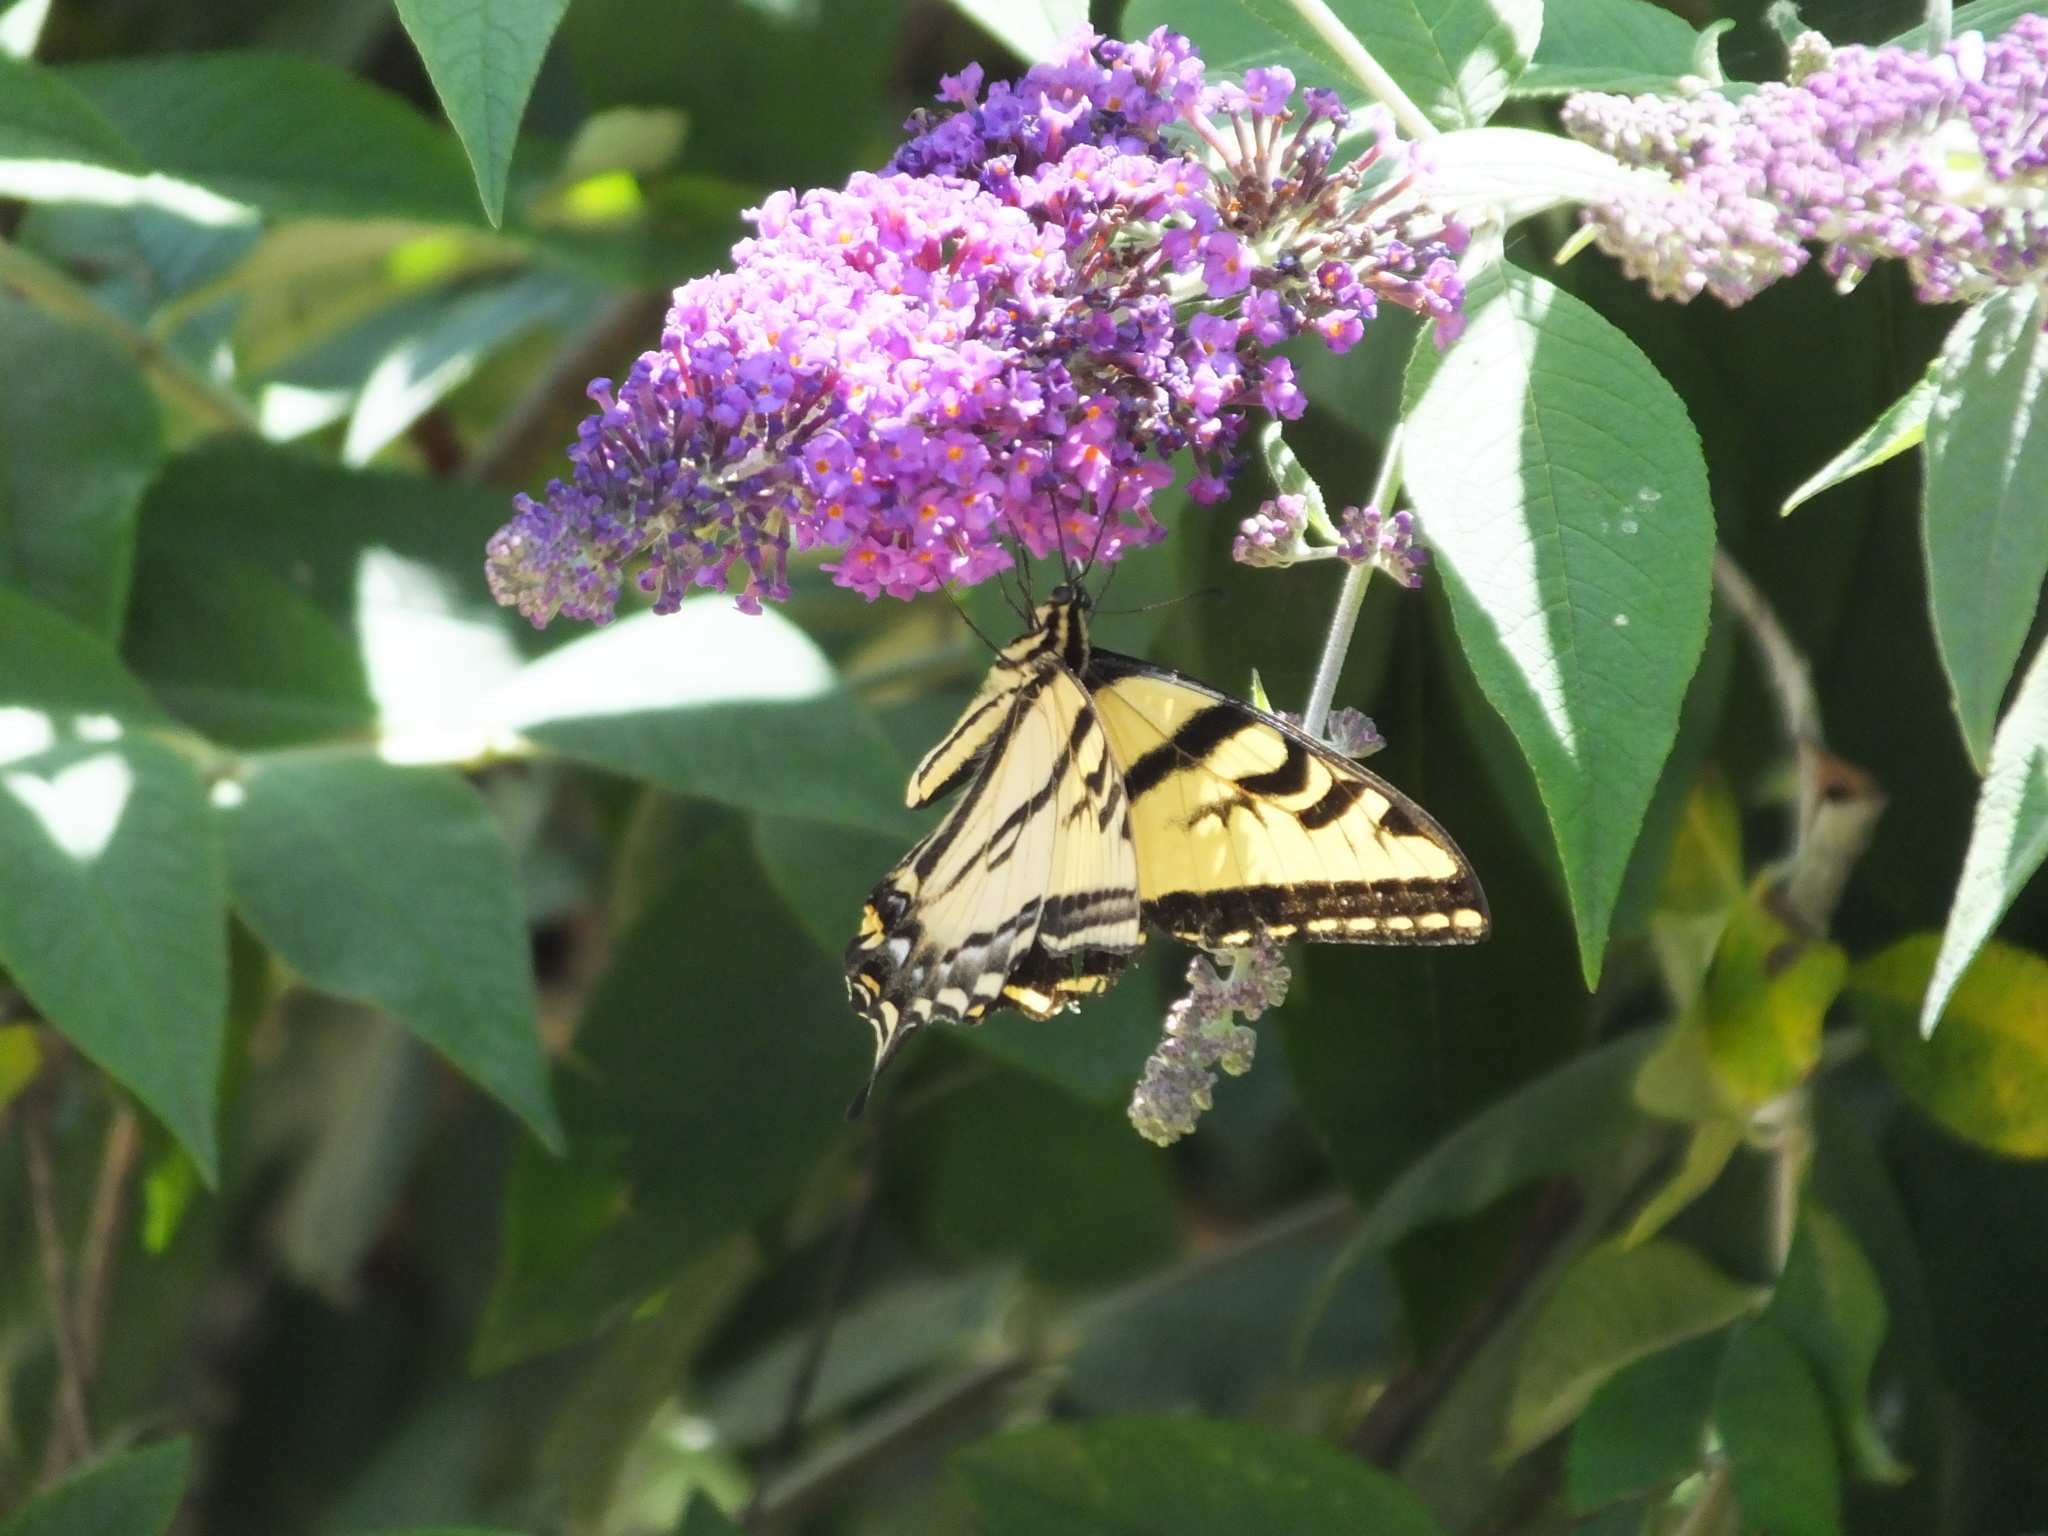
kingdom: Animalia
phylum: Arthropoda
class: Insecta
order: Lepidoptera
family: Papilionidae
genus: Papilio
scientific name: Papilio rutulus
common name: Western tiger swallowtail
